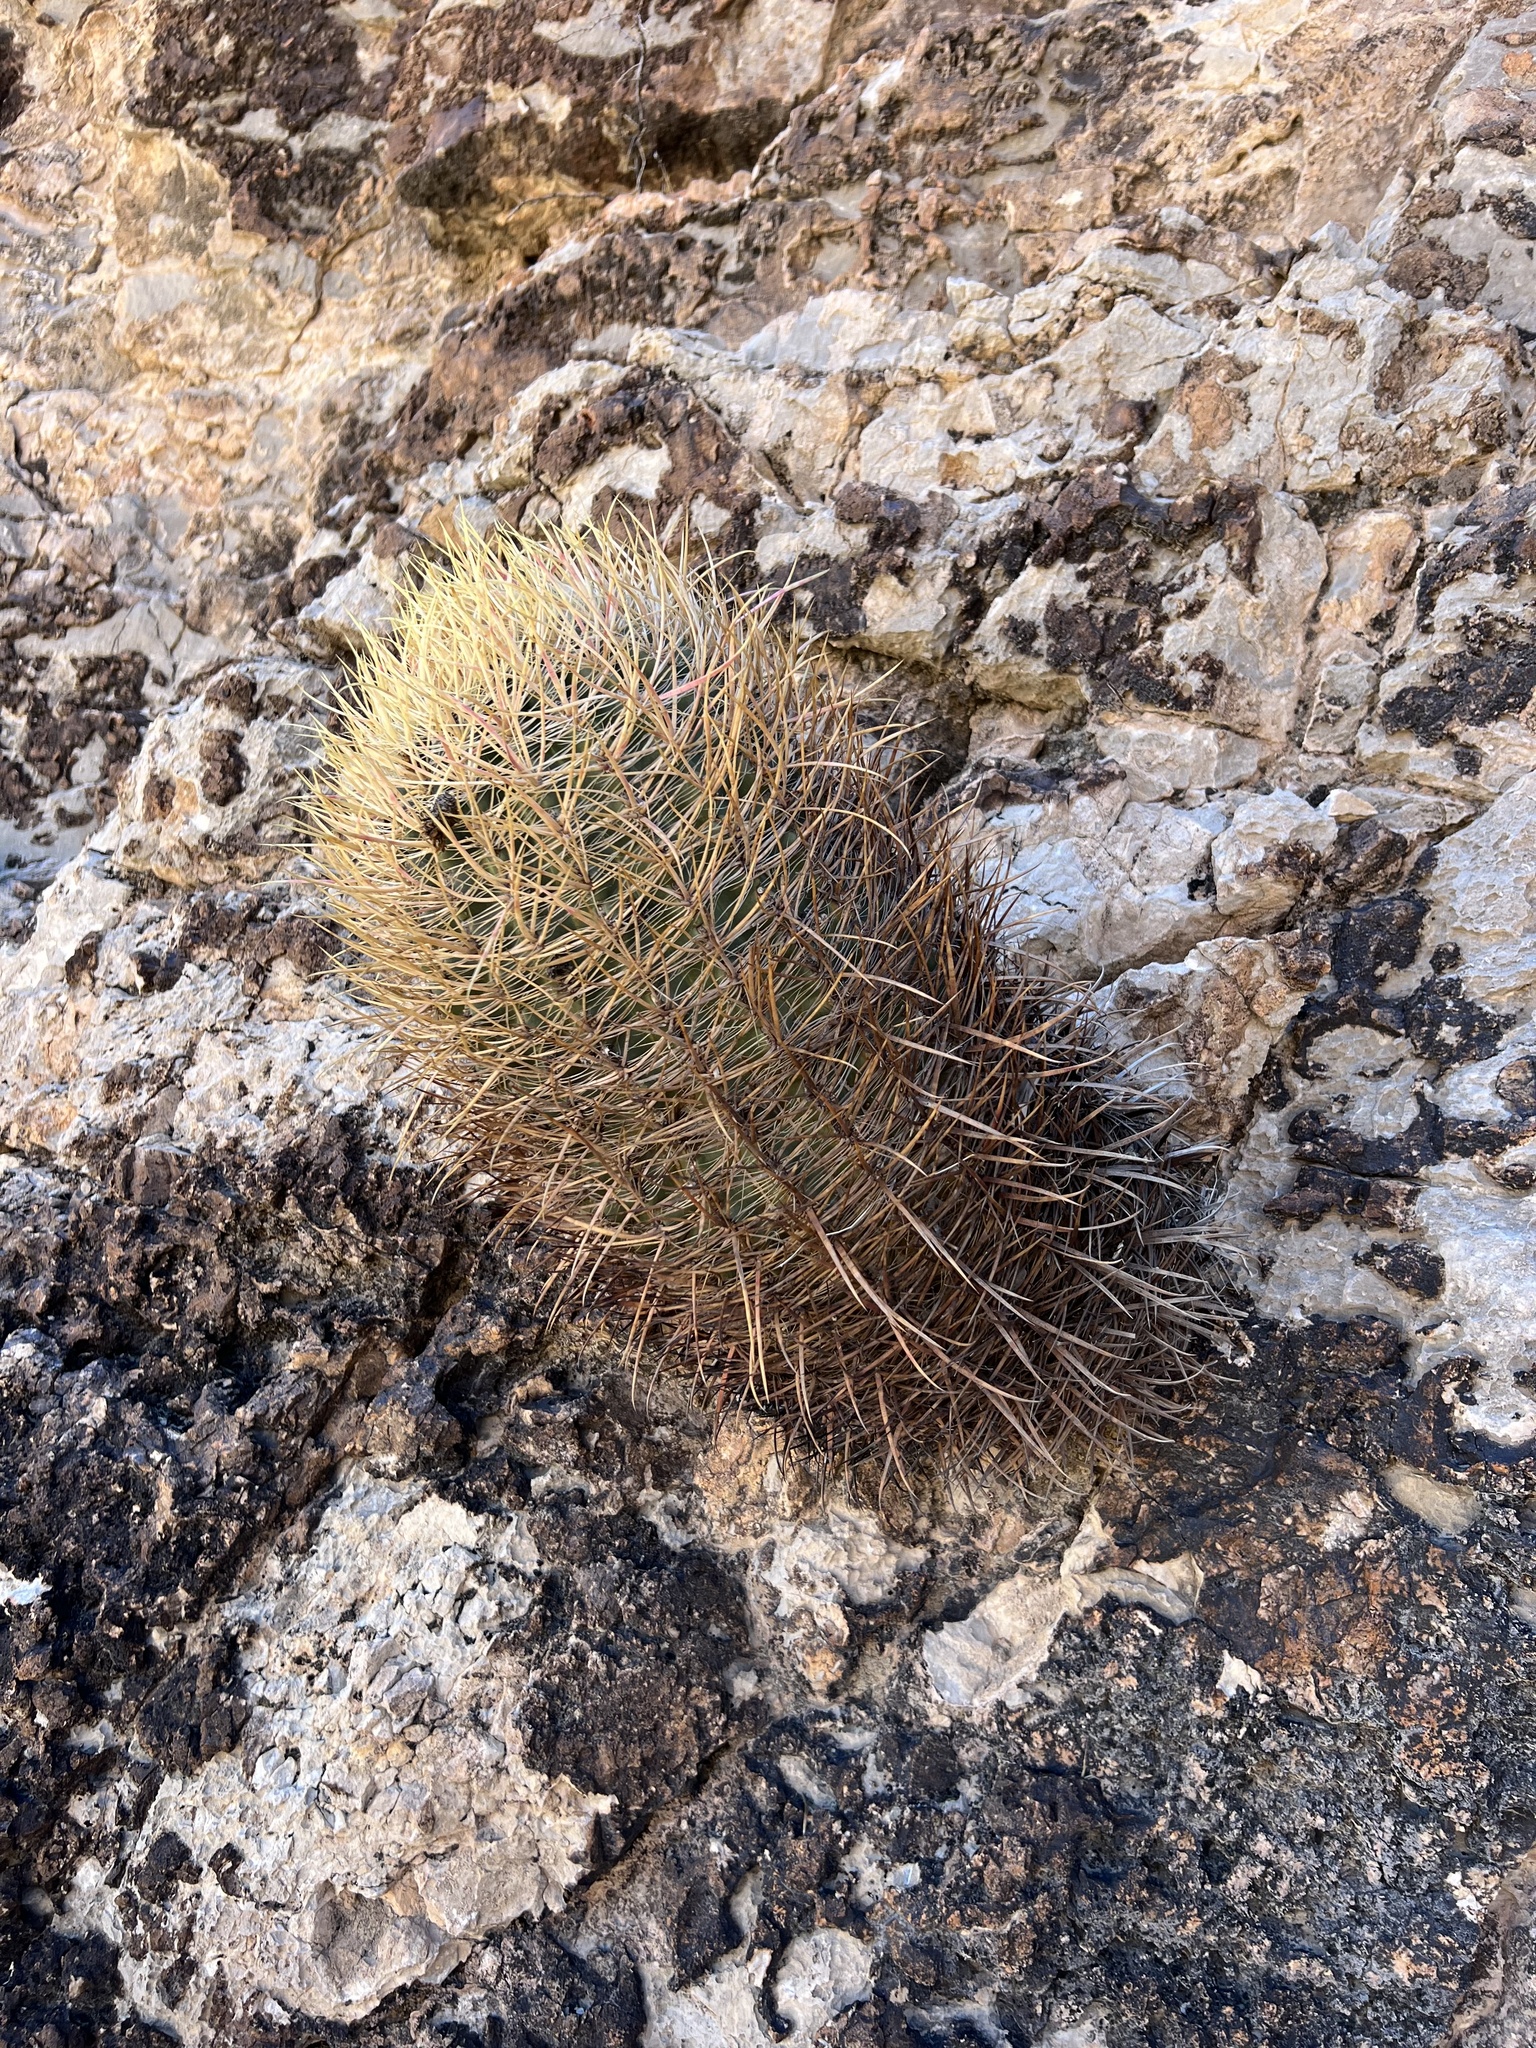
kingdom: Plantae
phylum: Tracheophyta
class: Magnoliopsida
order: Caryophyllales
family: Cactaceae
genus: Ferocactus
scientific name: Ferocactus cylindraceus
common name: California barrel cactus
